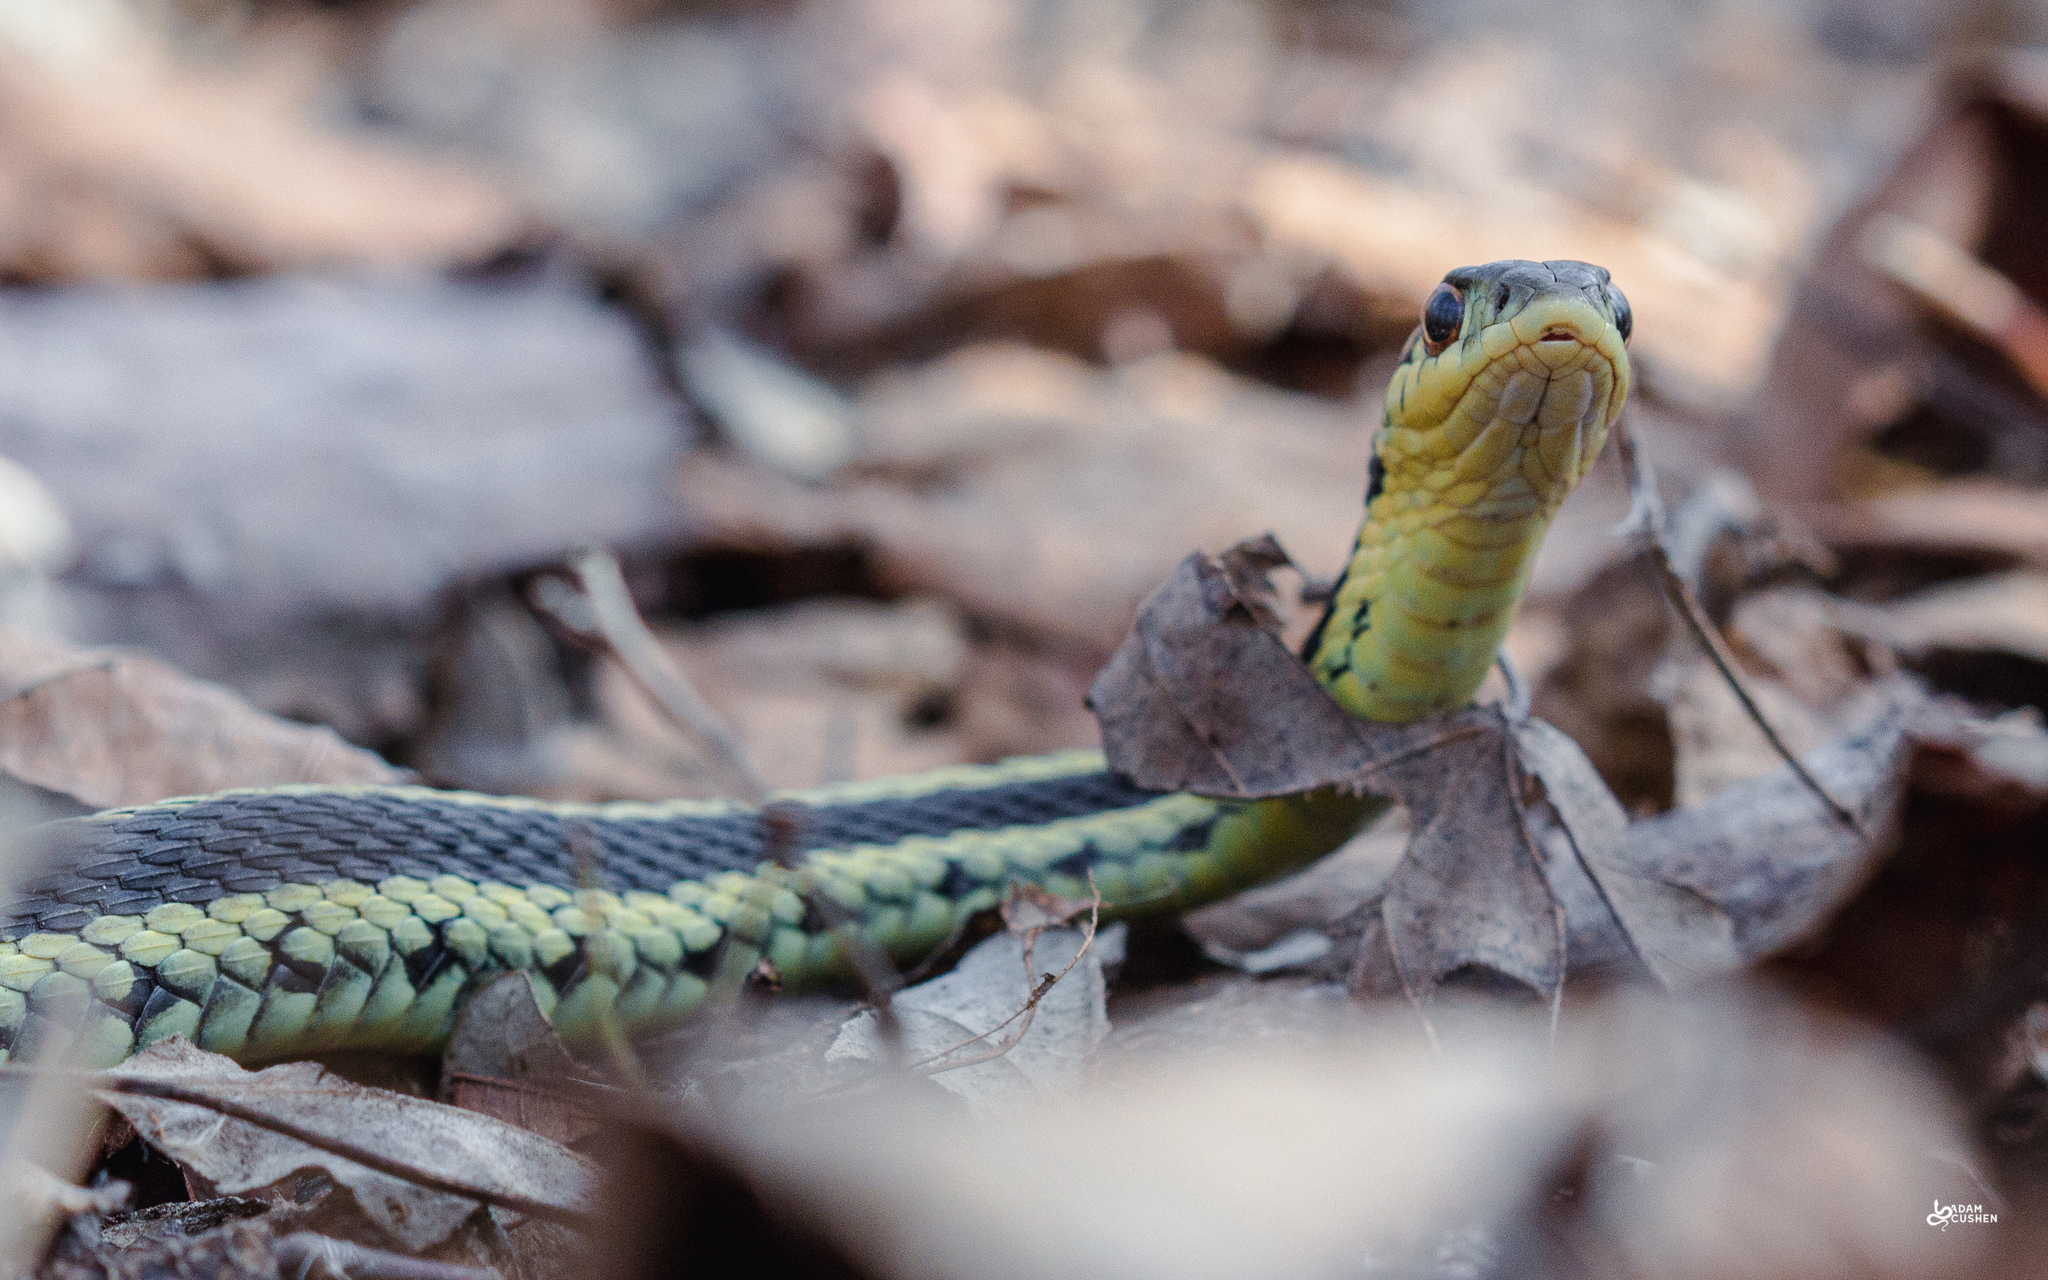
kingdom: Animalia
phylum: Chordata
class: Squamata
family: Colubridae
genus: Thamnophis
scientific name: Thamnophis sirtalis
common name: Common garter snake
